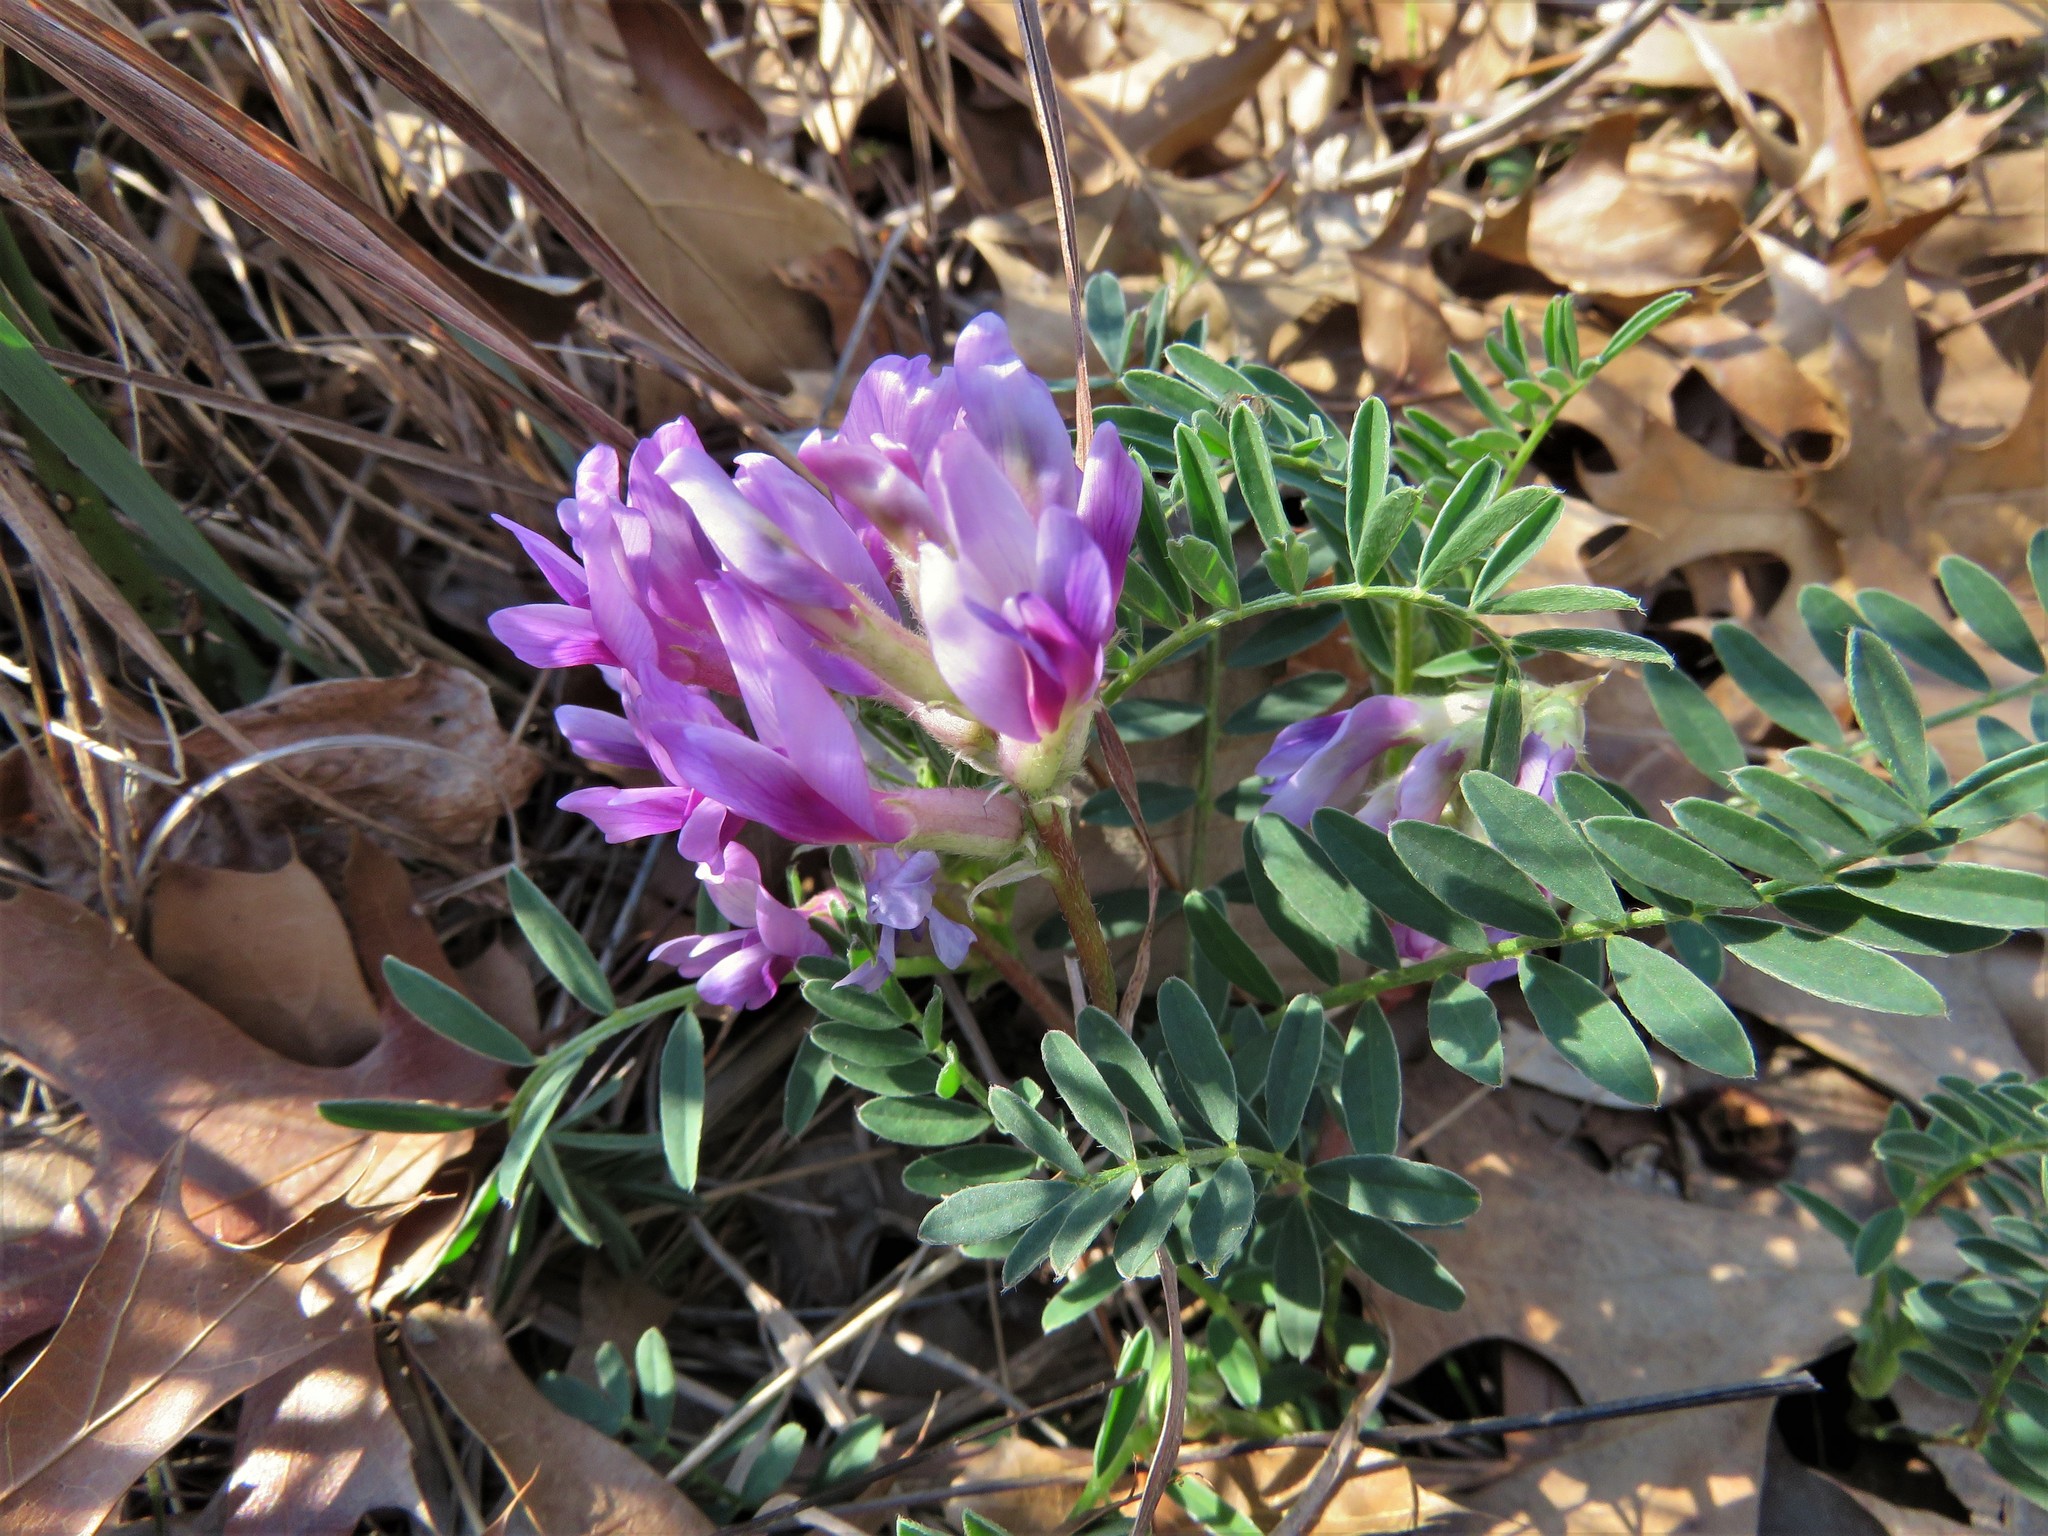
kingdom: Plantae
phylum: Tracheophyta
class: Magnoliopsida
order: Fabales
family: Fabaceae
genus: Astragalus
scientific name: Astragalus crassicarpus
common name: Ground-plum milk-vetch
